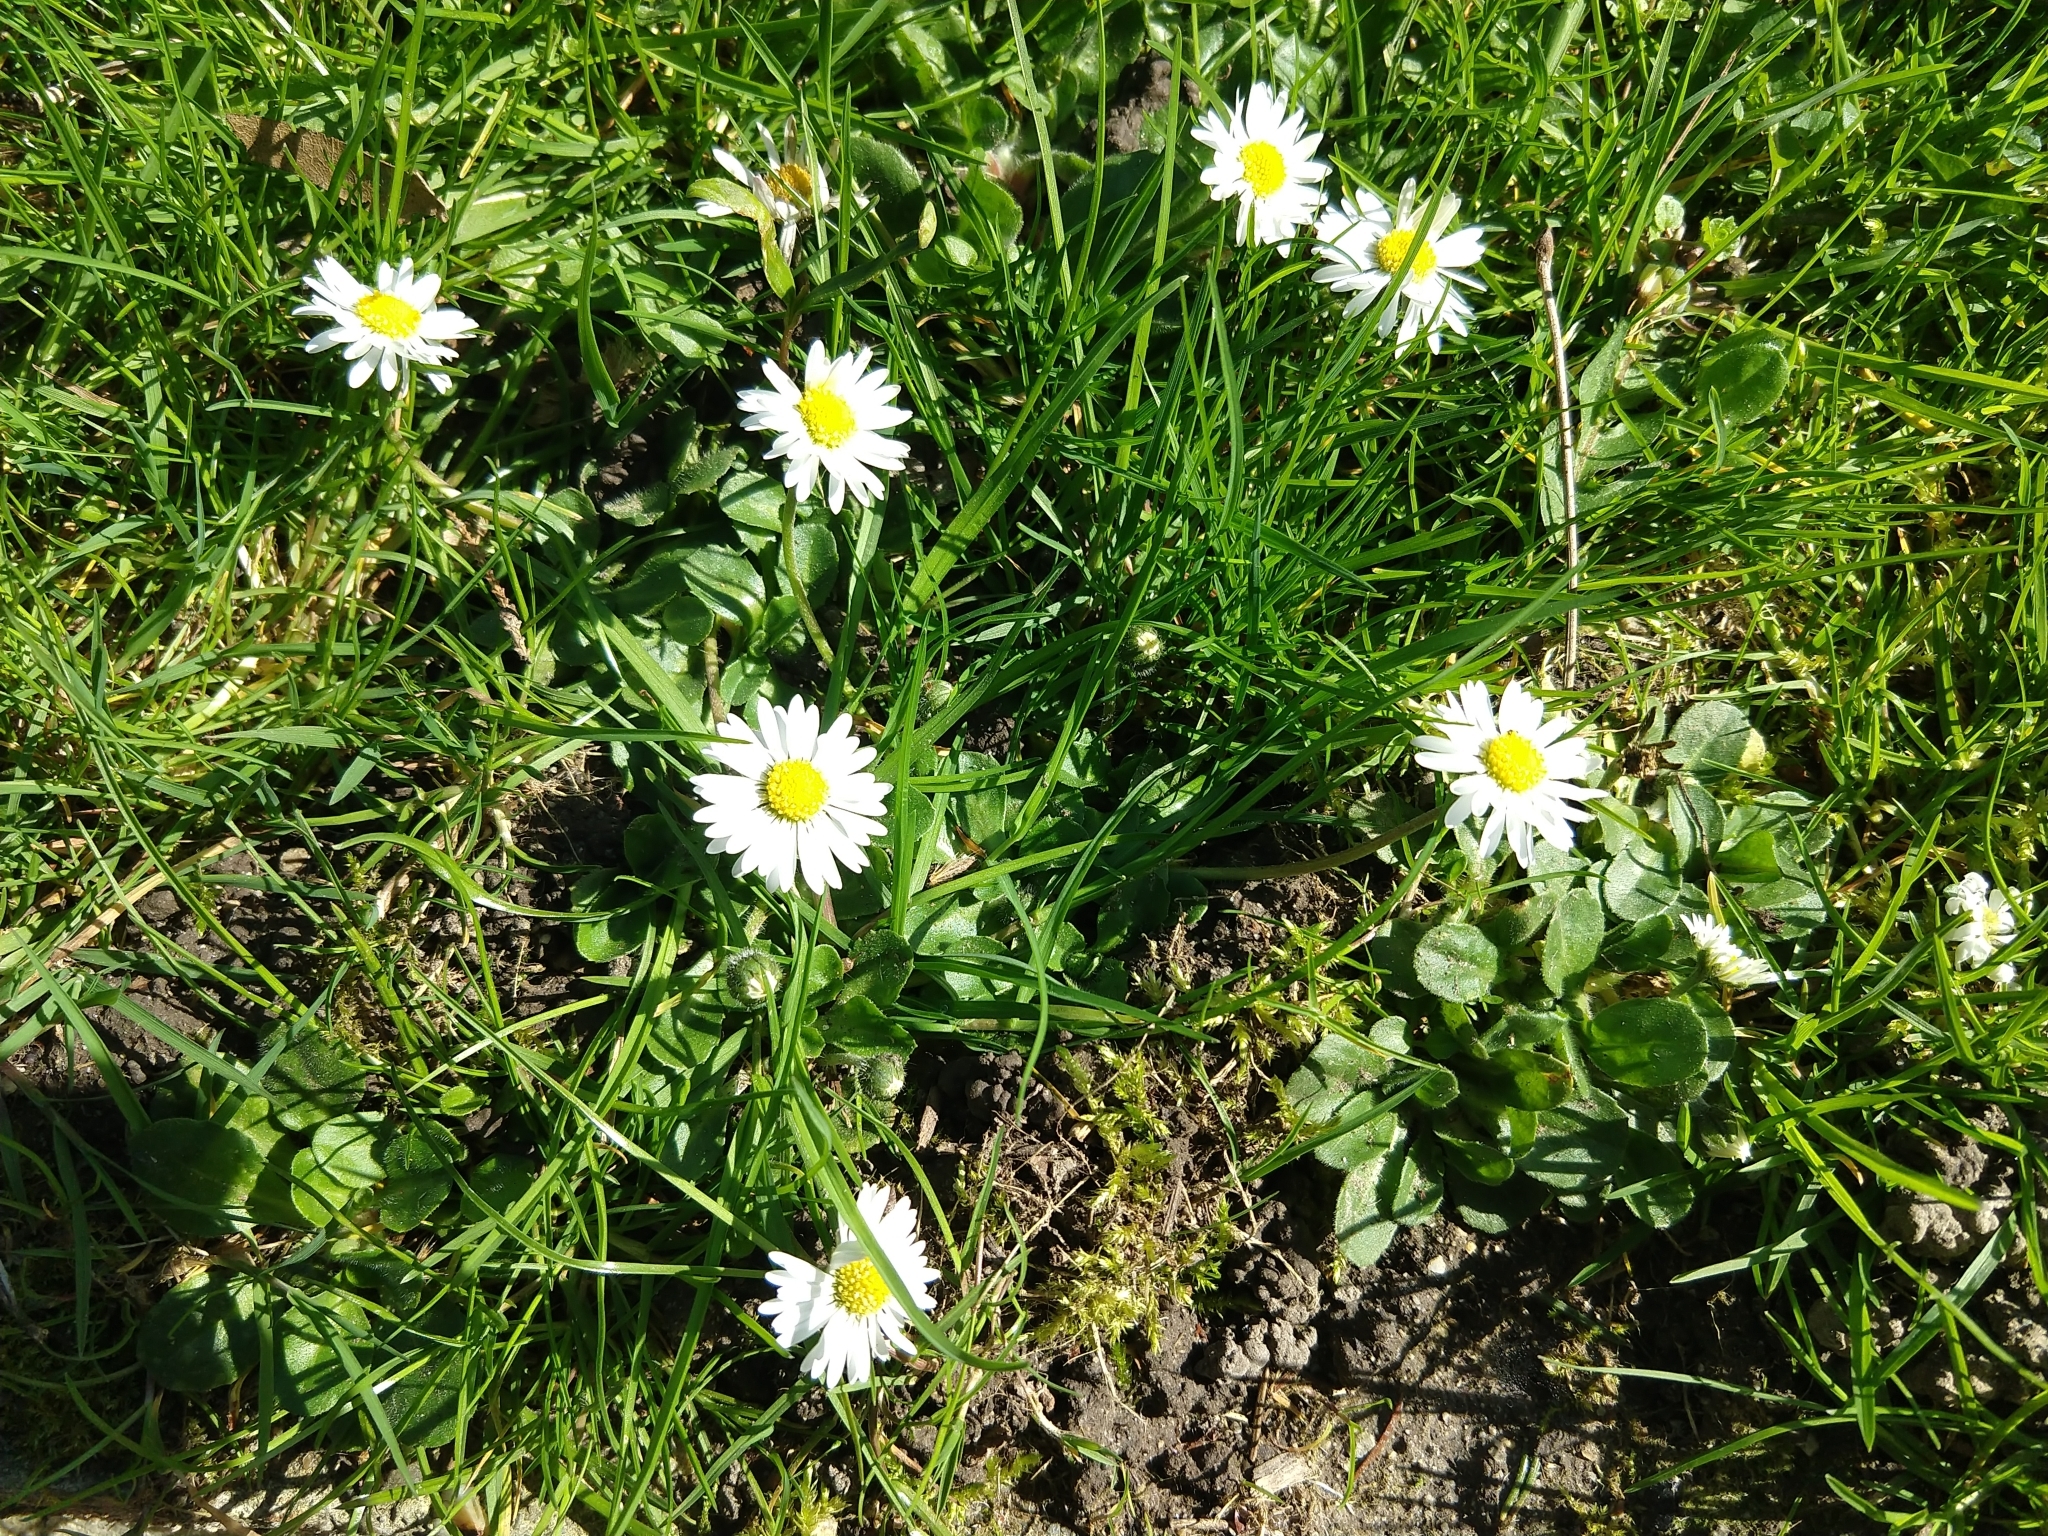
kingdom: Plantae
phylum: Tracheophyta
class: Magnoliopsida
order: Asterales
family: Asteraceae
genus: Bellis
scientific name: Bellis perennis
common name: Lawndaisy
